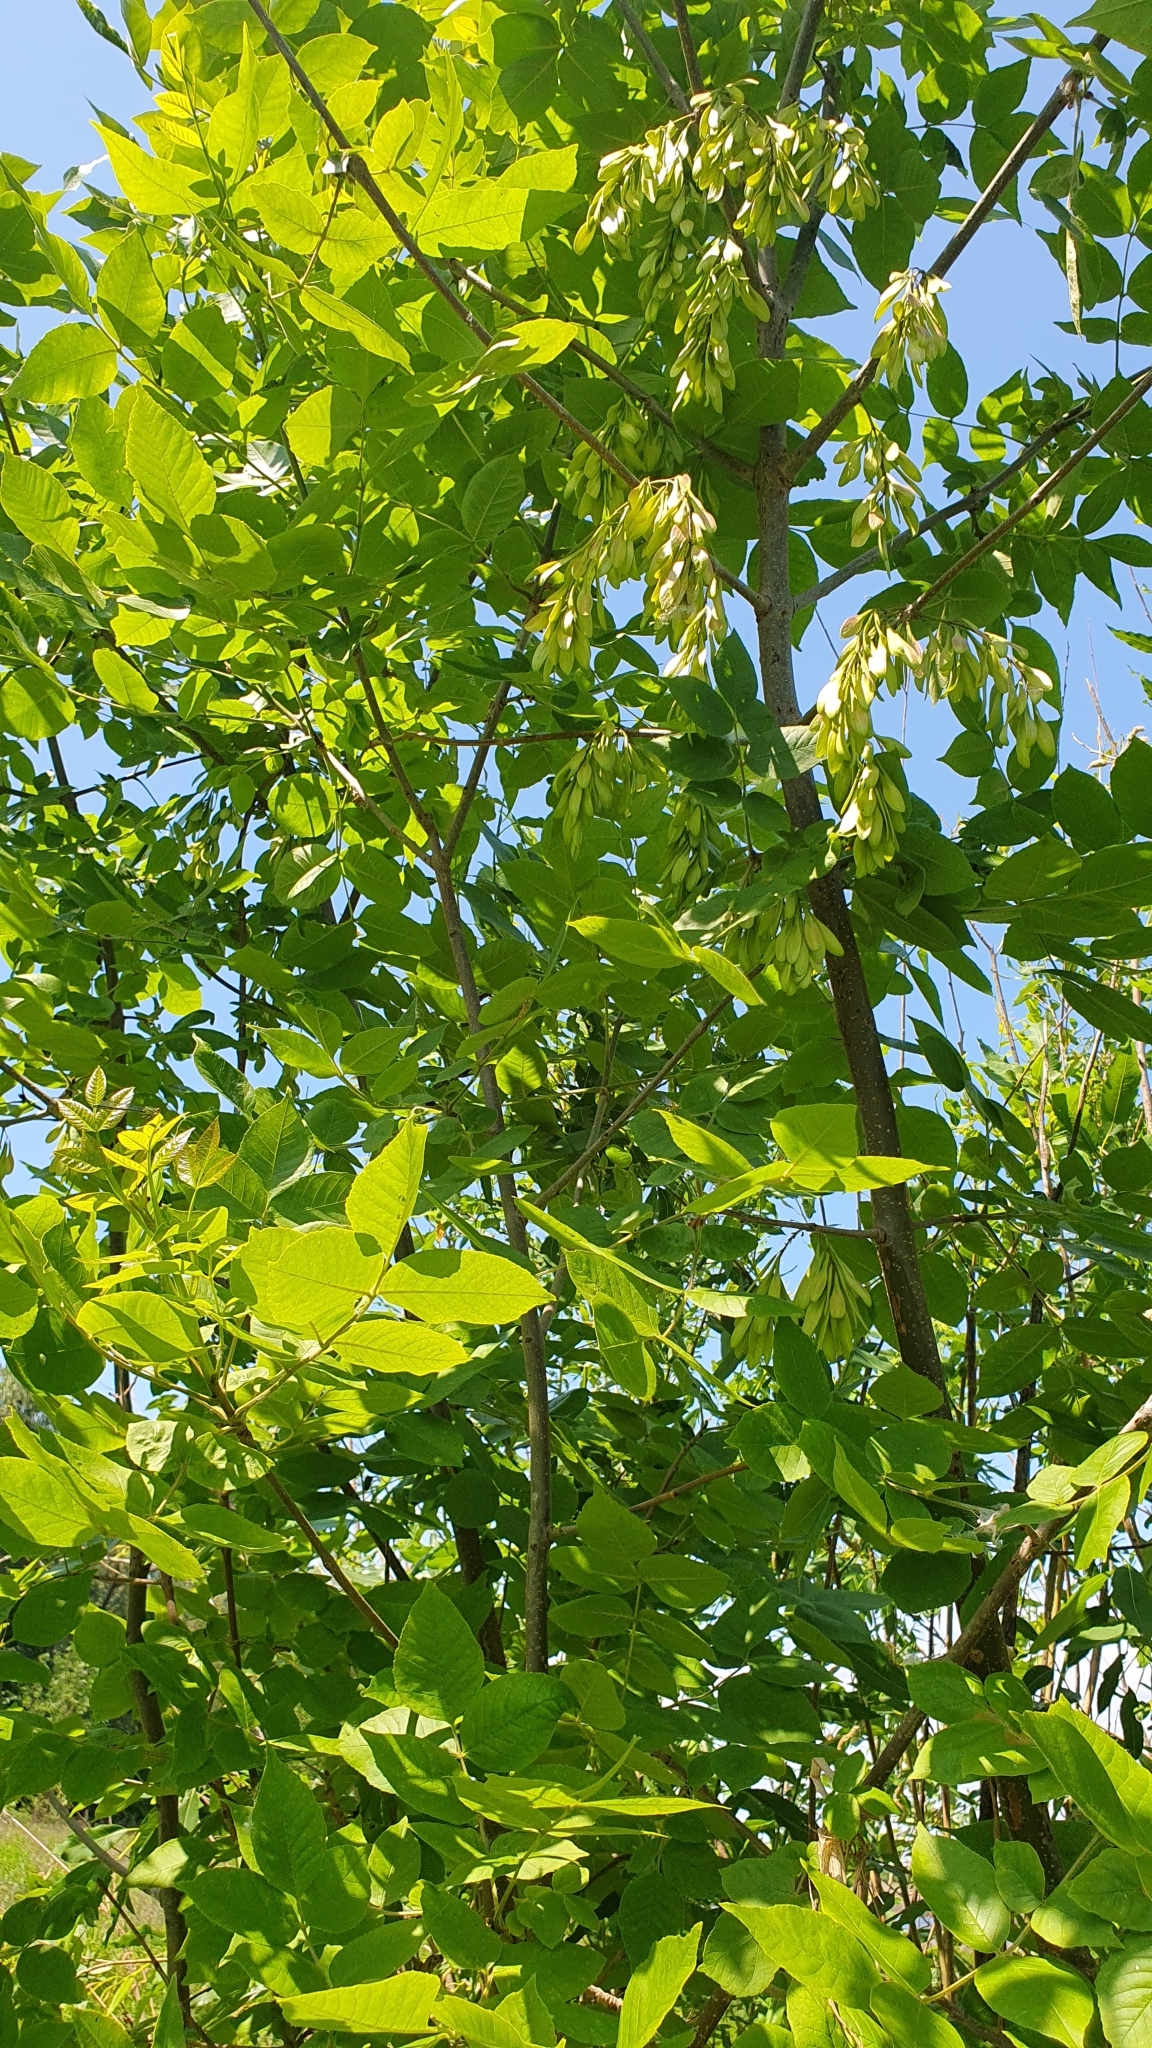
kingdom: Plantae
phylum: Tracheophyta
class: Magnoliopsida
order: Lamiales
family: Oleaceae
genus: Fraxinus
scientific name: Fraxinus pennsylvanica
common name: Green ash
